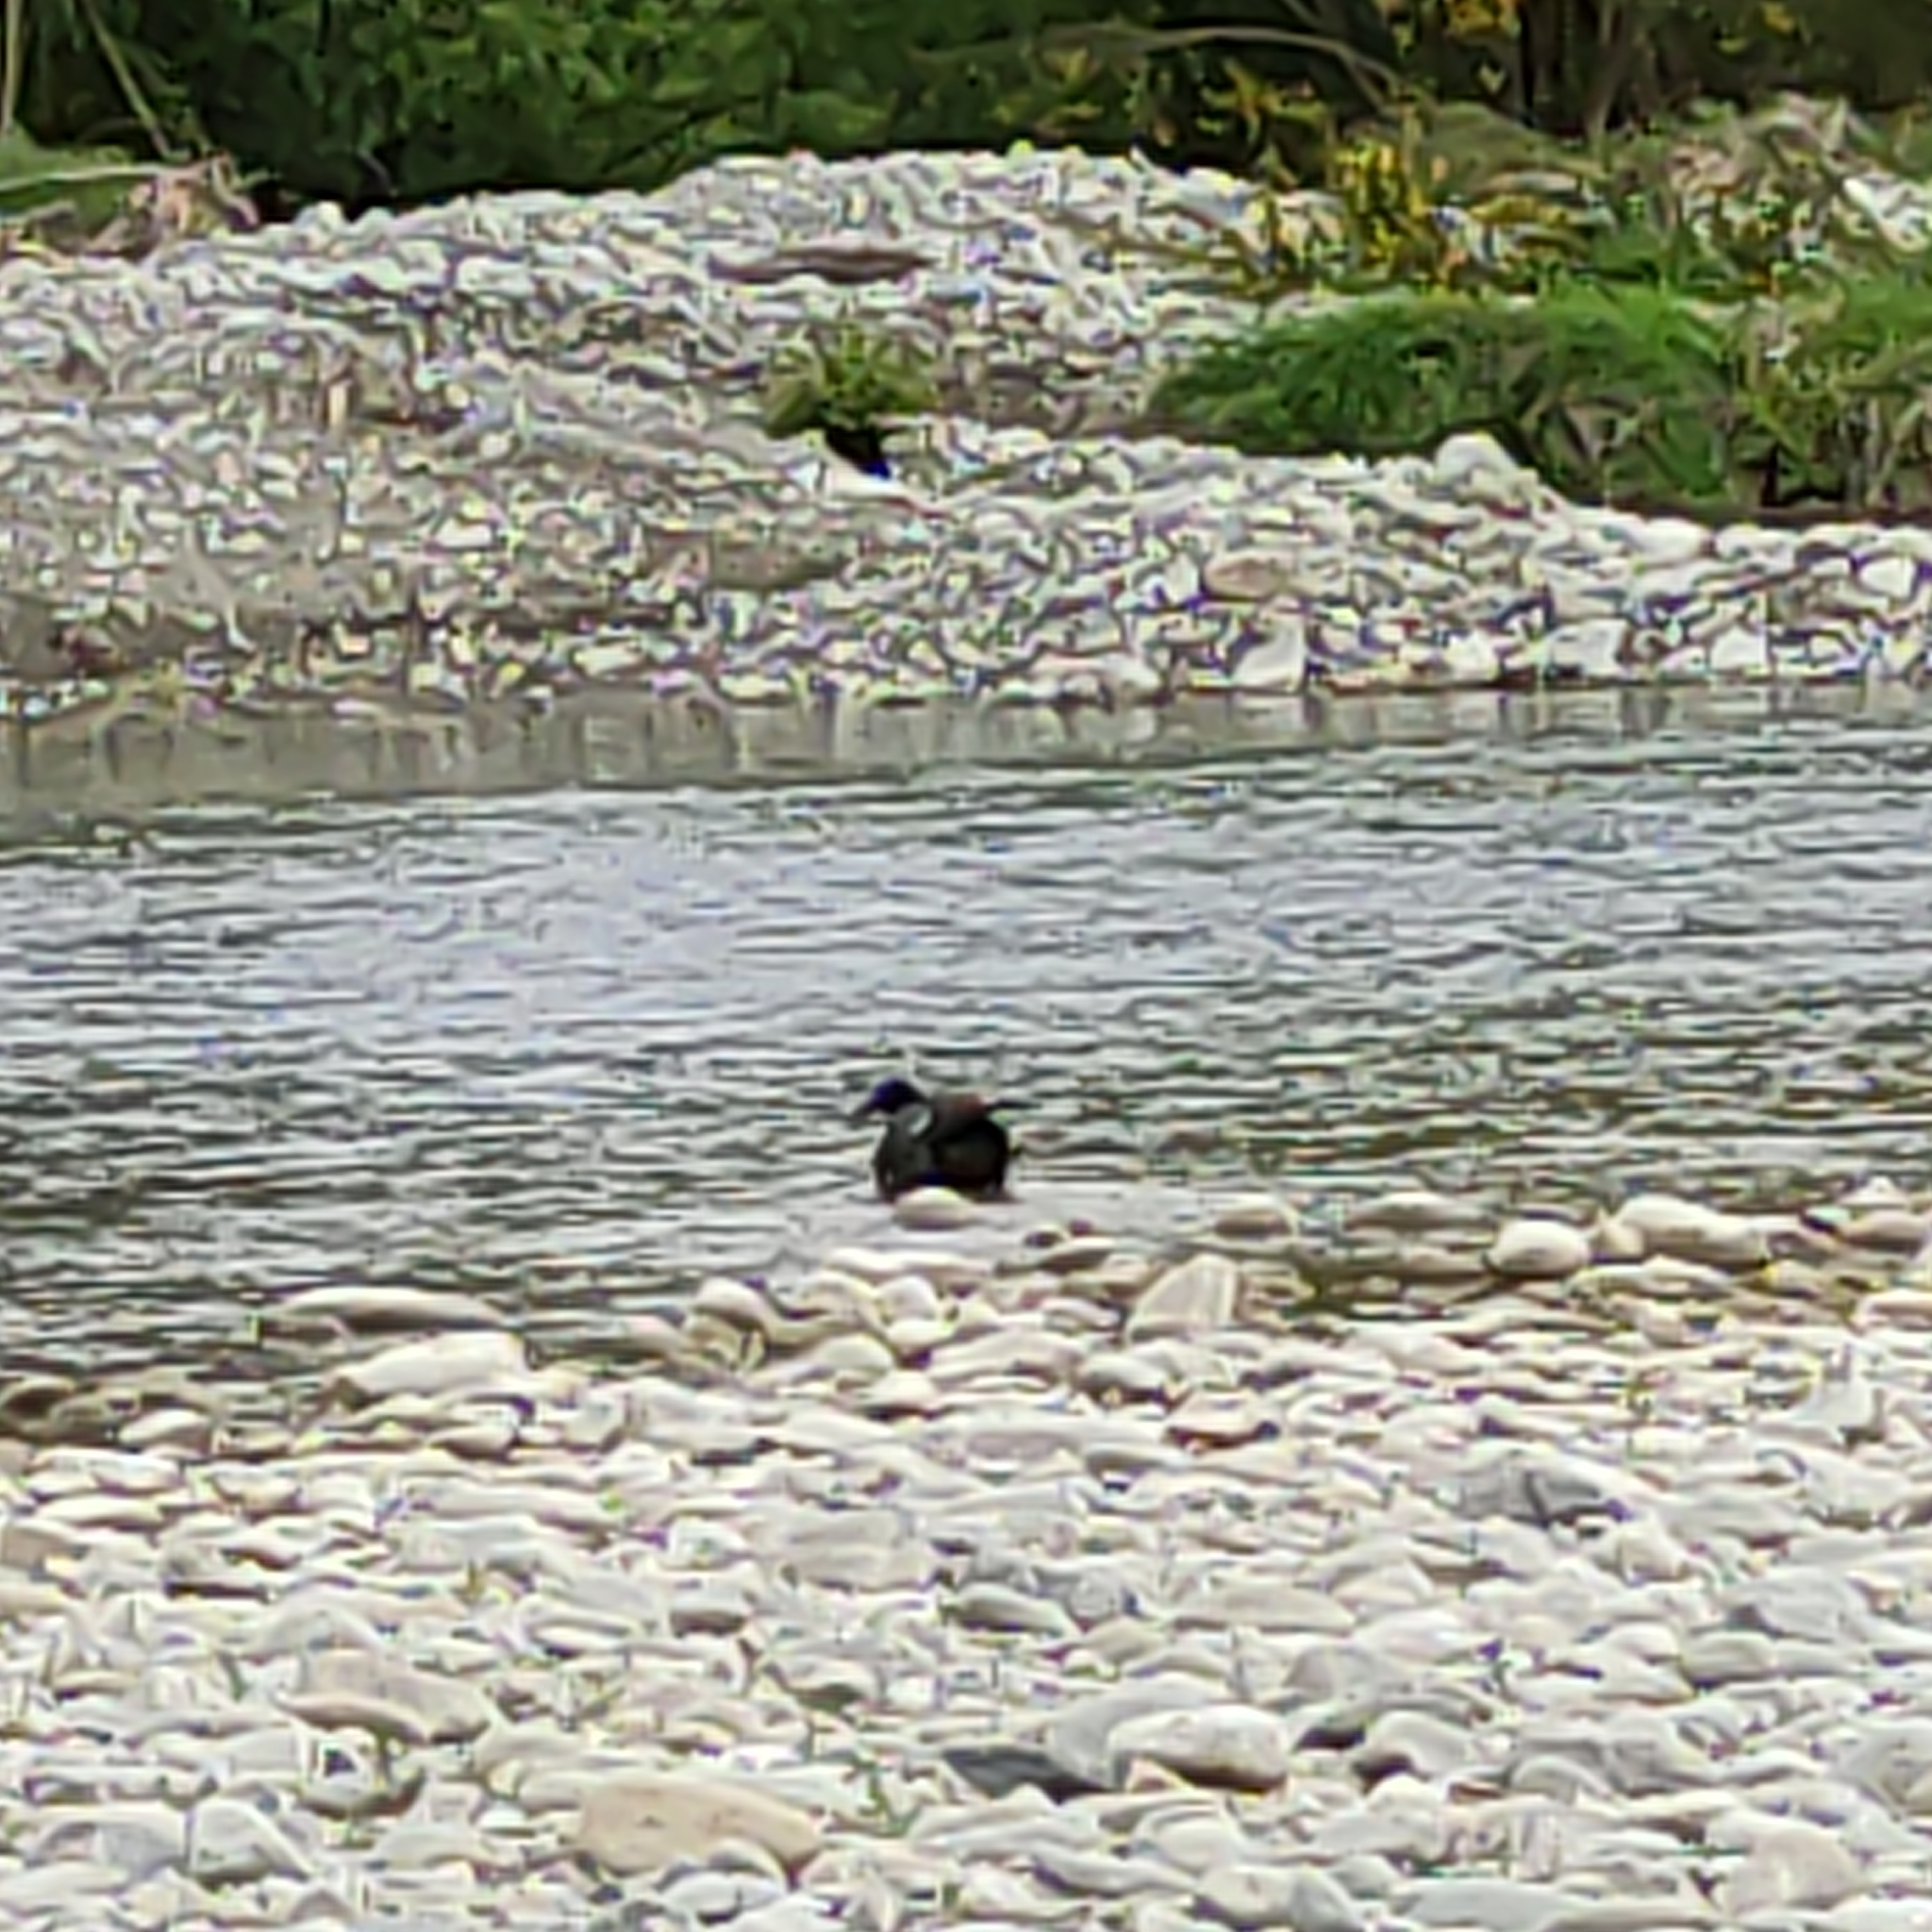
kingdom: Animalia
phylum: Chordata
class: Aves
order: Anseriformes
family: Anatidae
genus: Tadorna
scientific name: Tadorna variegata
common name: Paradise shelduck
